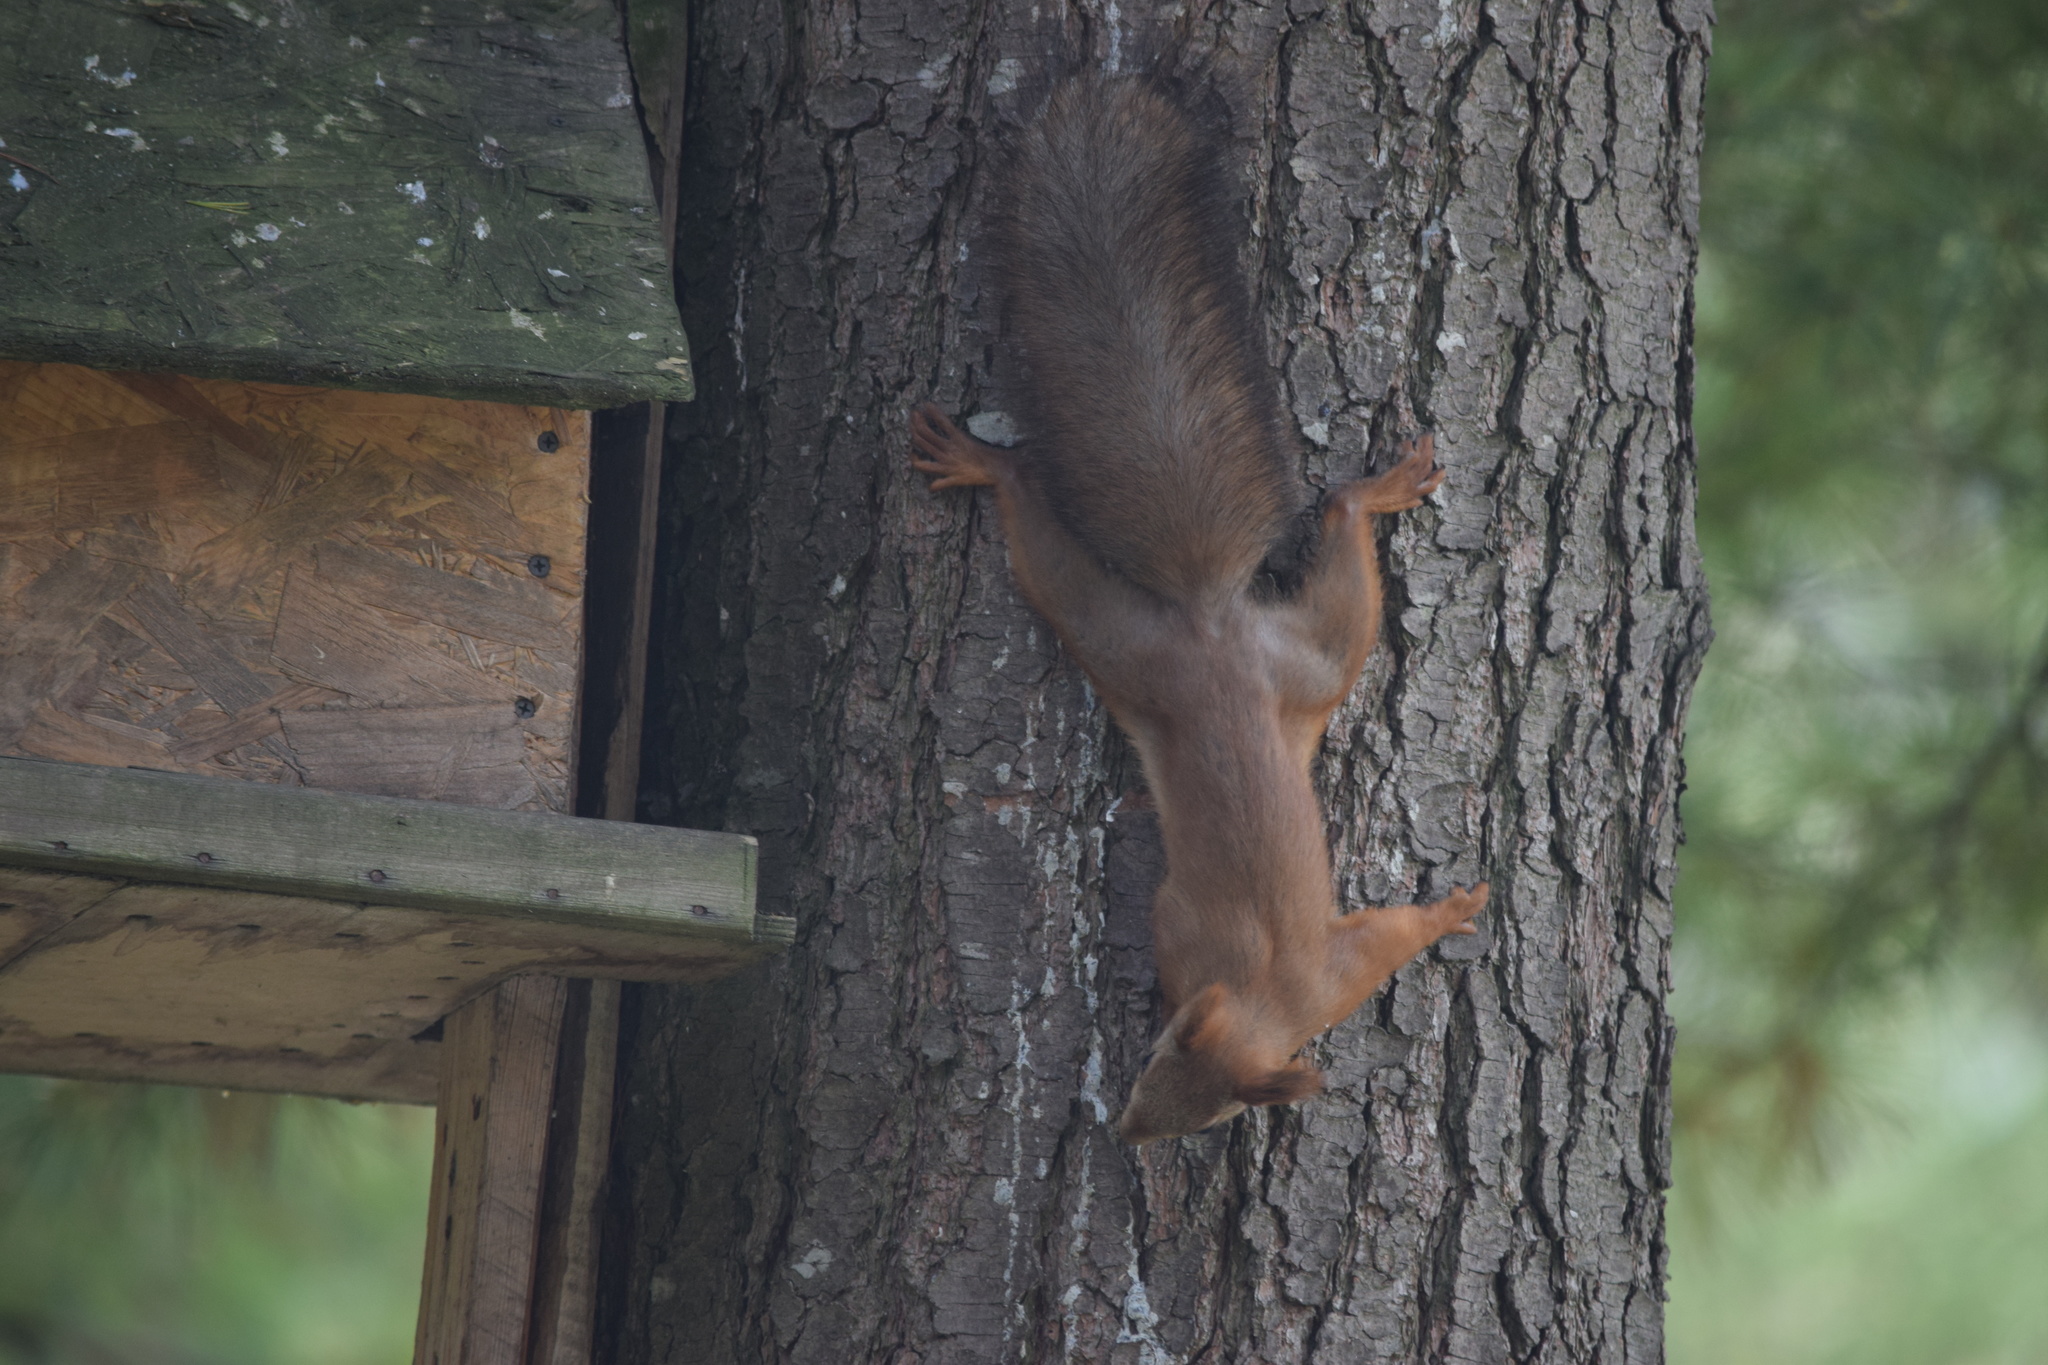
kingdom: Animalia
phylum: Chordata
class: Mammalia
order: Rodentia
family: Sciuridae
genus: Sciurus
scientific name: Sciurus vulgaris
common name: Eurasian red squirrel
